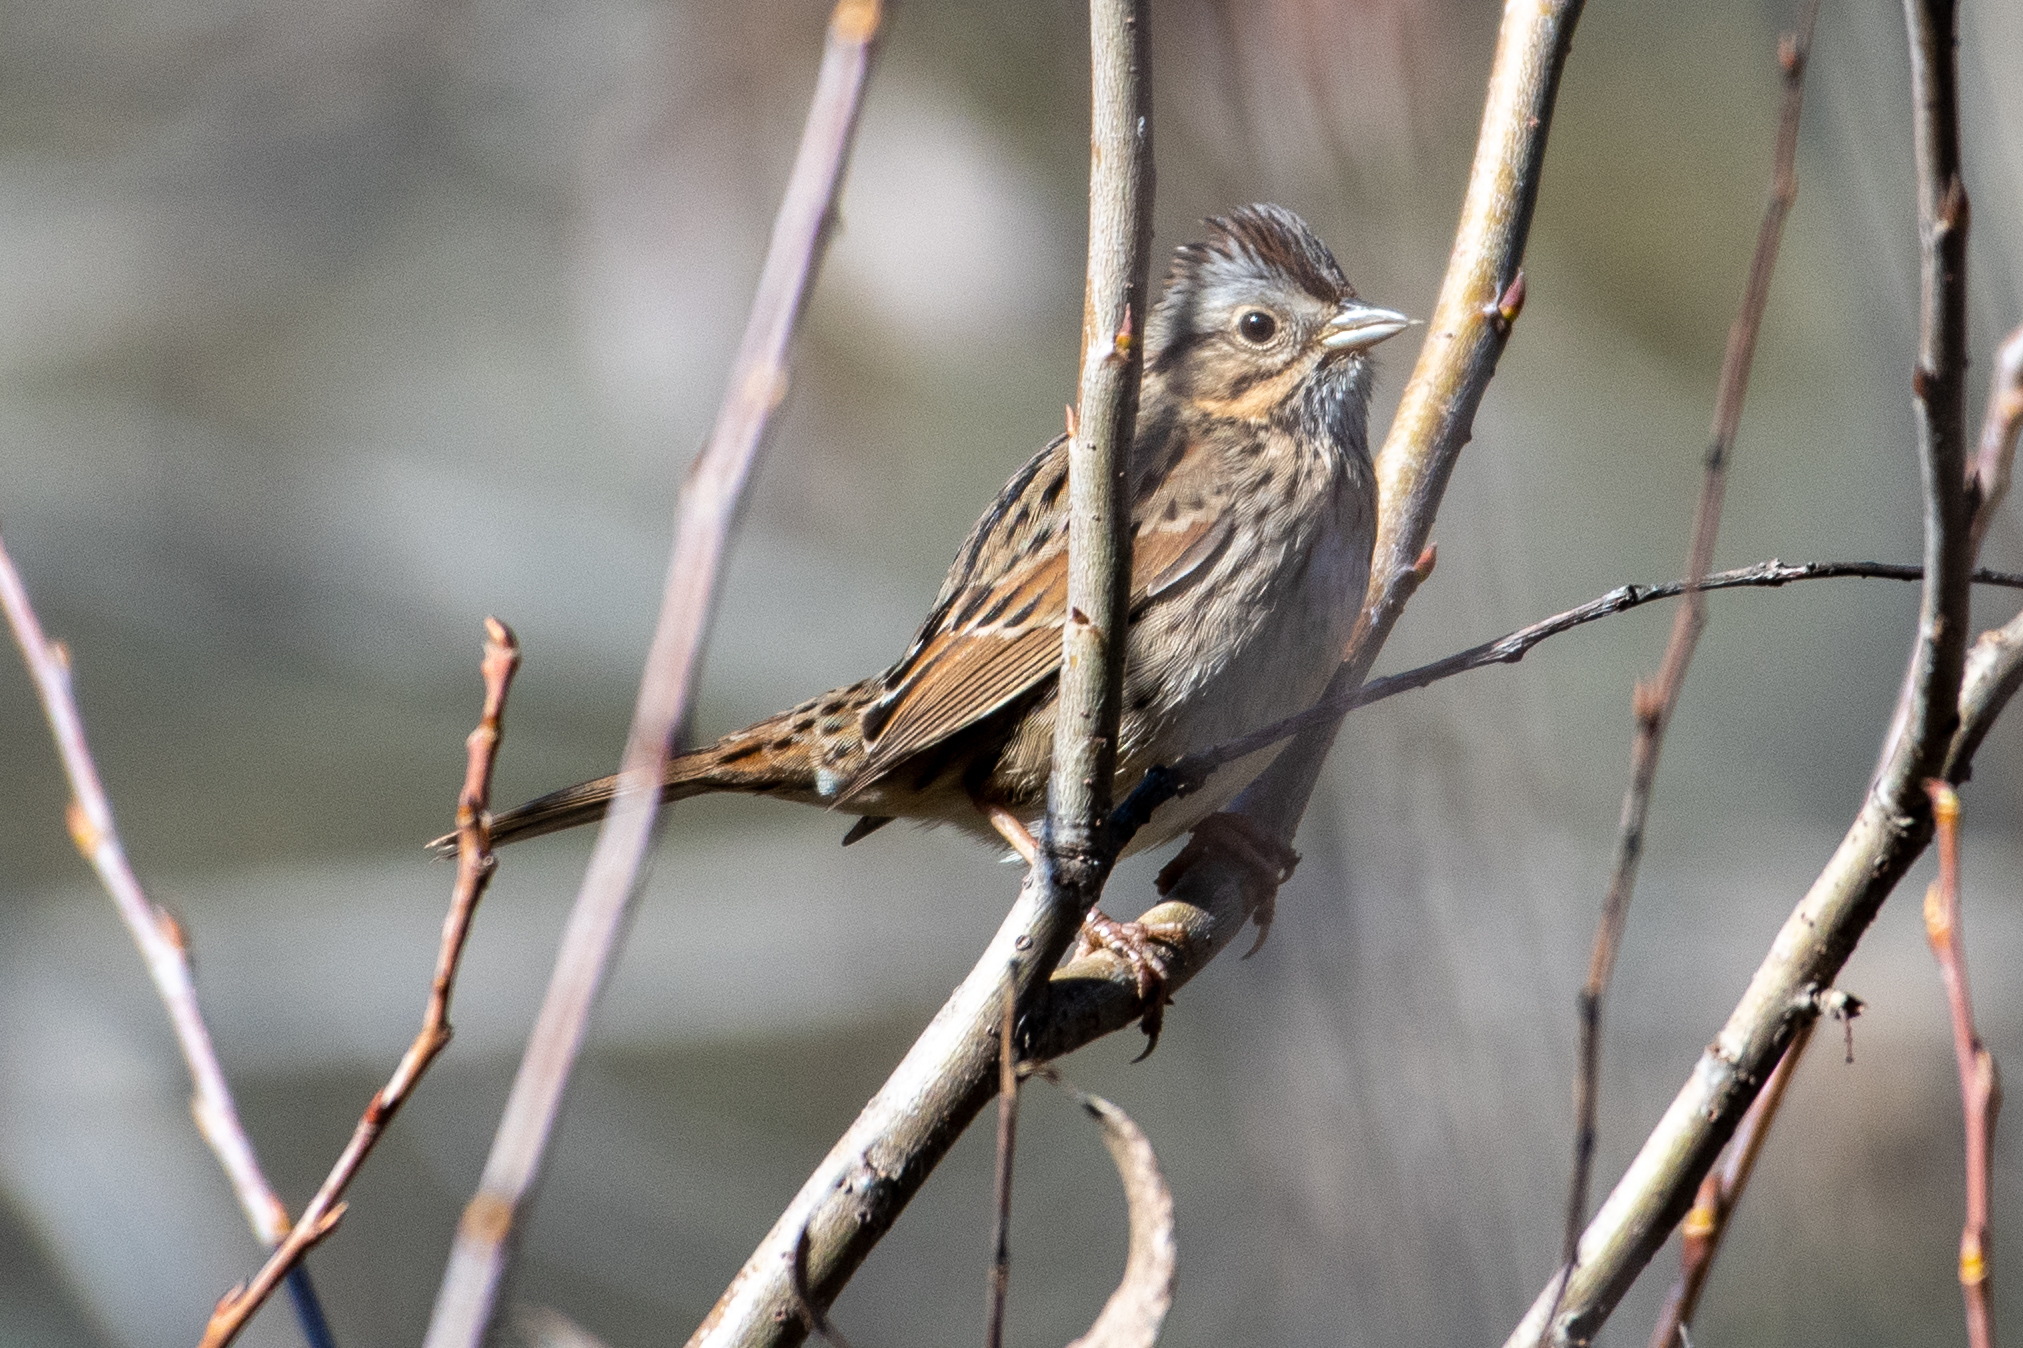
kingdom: Animalia
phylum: Chordata
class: Aves
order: Passeriformes
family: Passerellidae
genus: Melospiza
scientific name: Melospiza lincolnii
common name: Lincoln's sparrow
